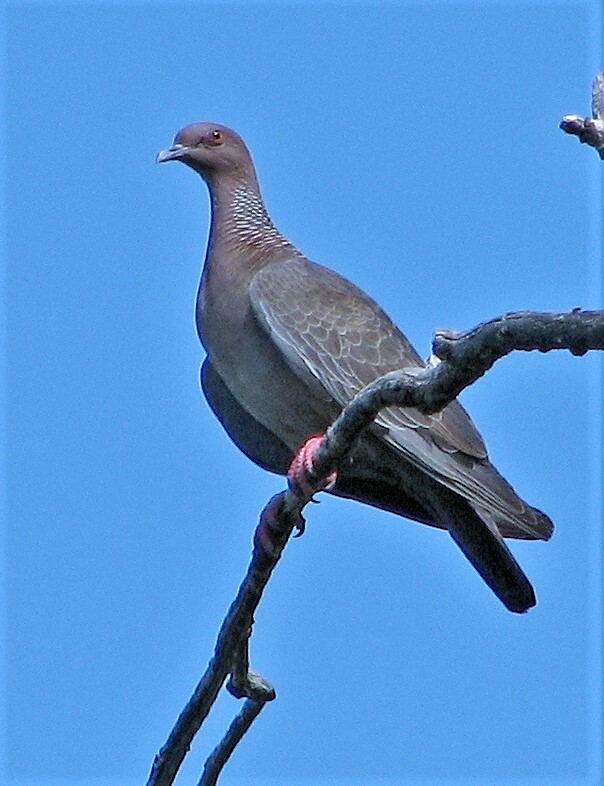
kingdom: Animalia
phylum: Chordata
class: Aves
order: Columbiformes
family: Columbidae
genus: Patagioenas
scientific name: Patagioenas picazuro
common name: Picazuro pigeon
